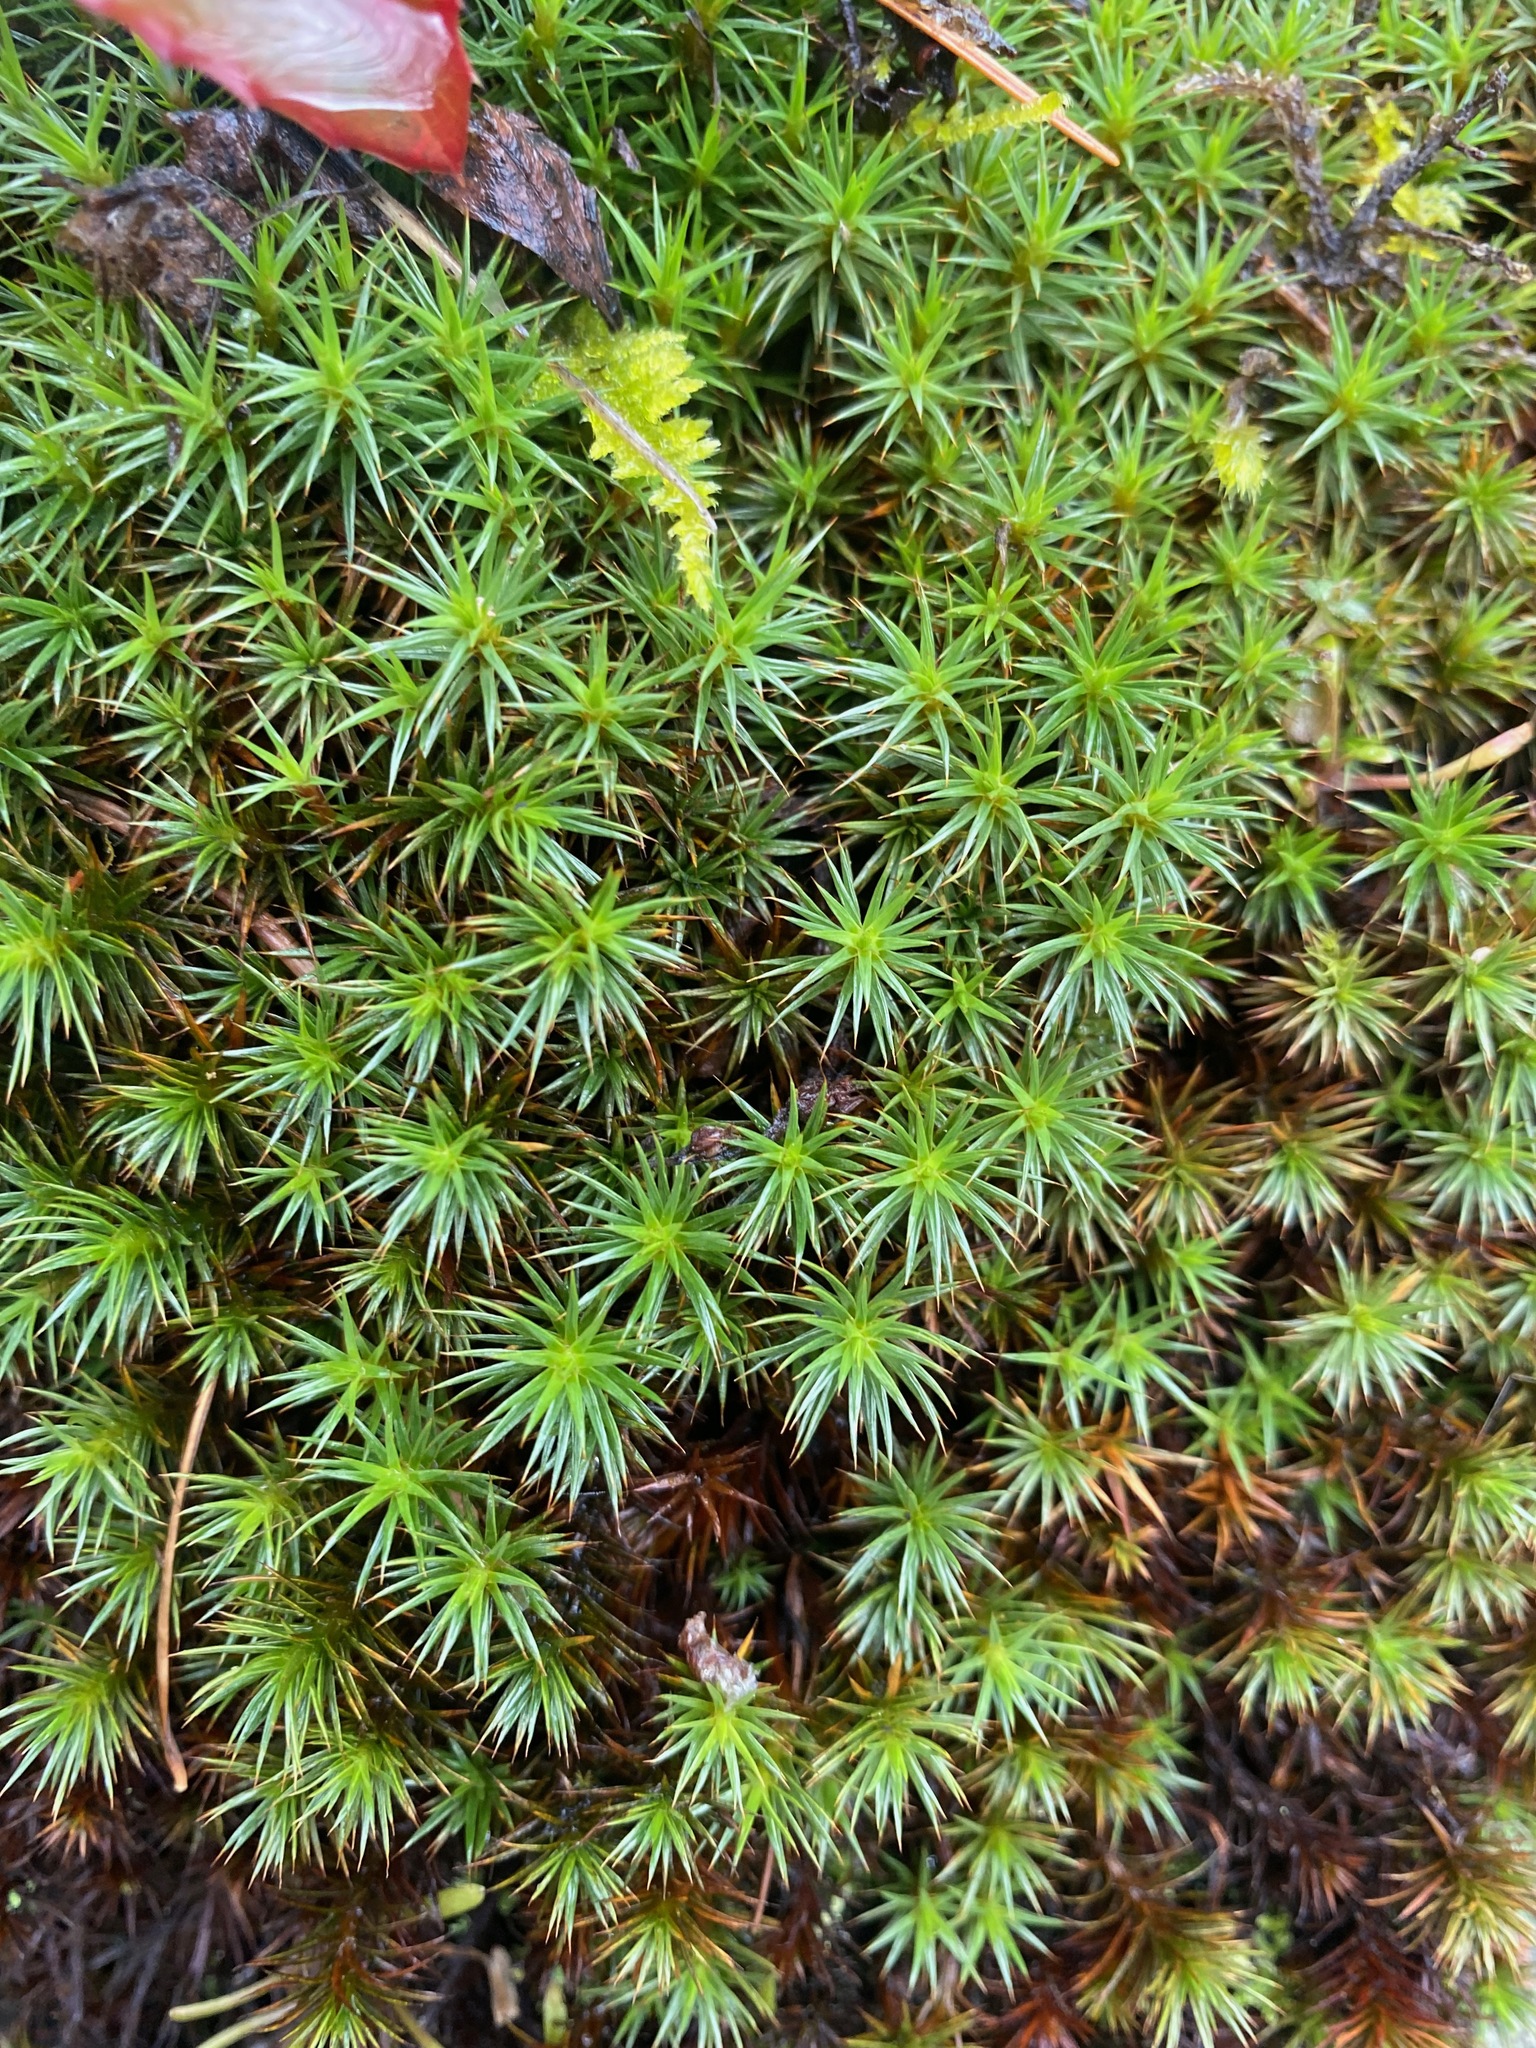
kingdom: Plantae
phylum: Bryophyta
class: Polytrichopsida
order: Polytrichales
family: Polytrichaceae
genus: Polytrichum
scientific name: Polytrichum juniperinum
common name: Juniper haircap moss
